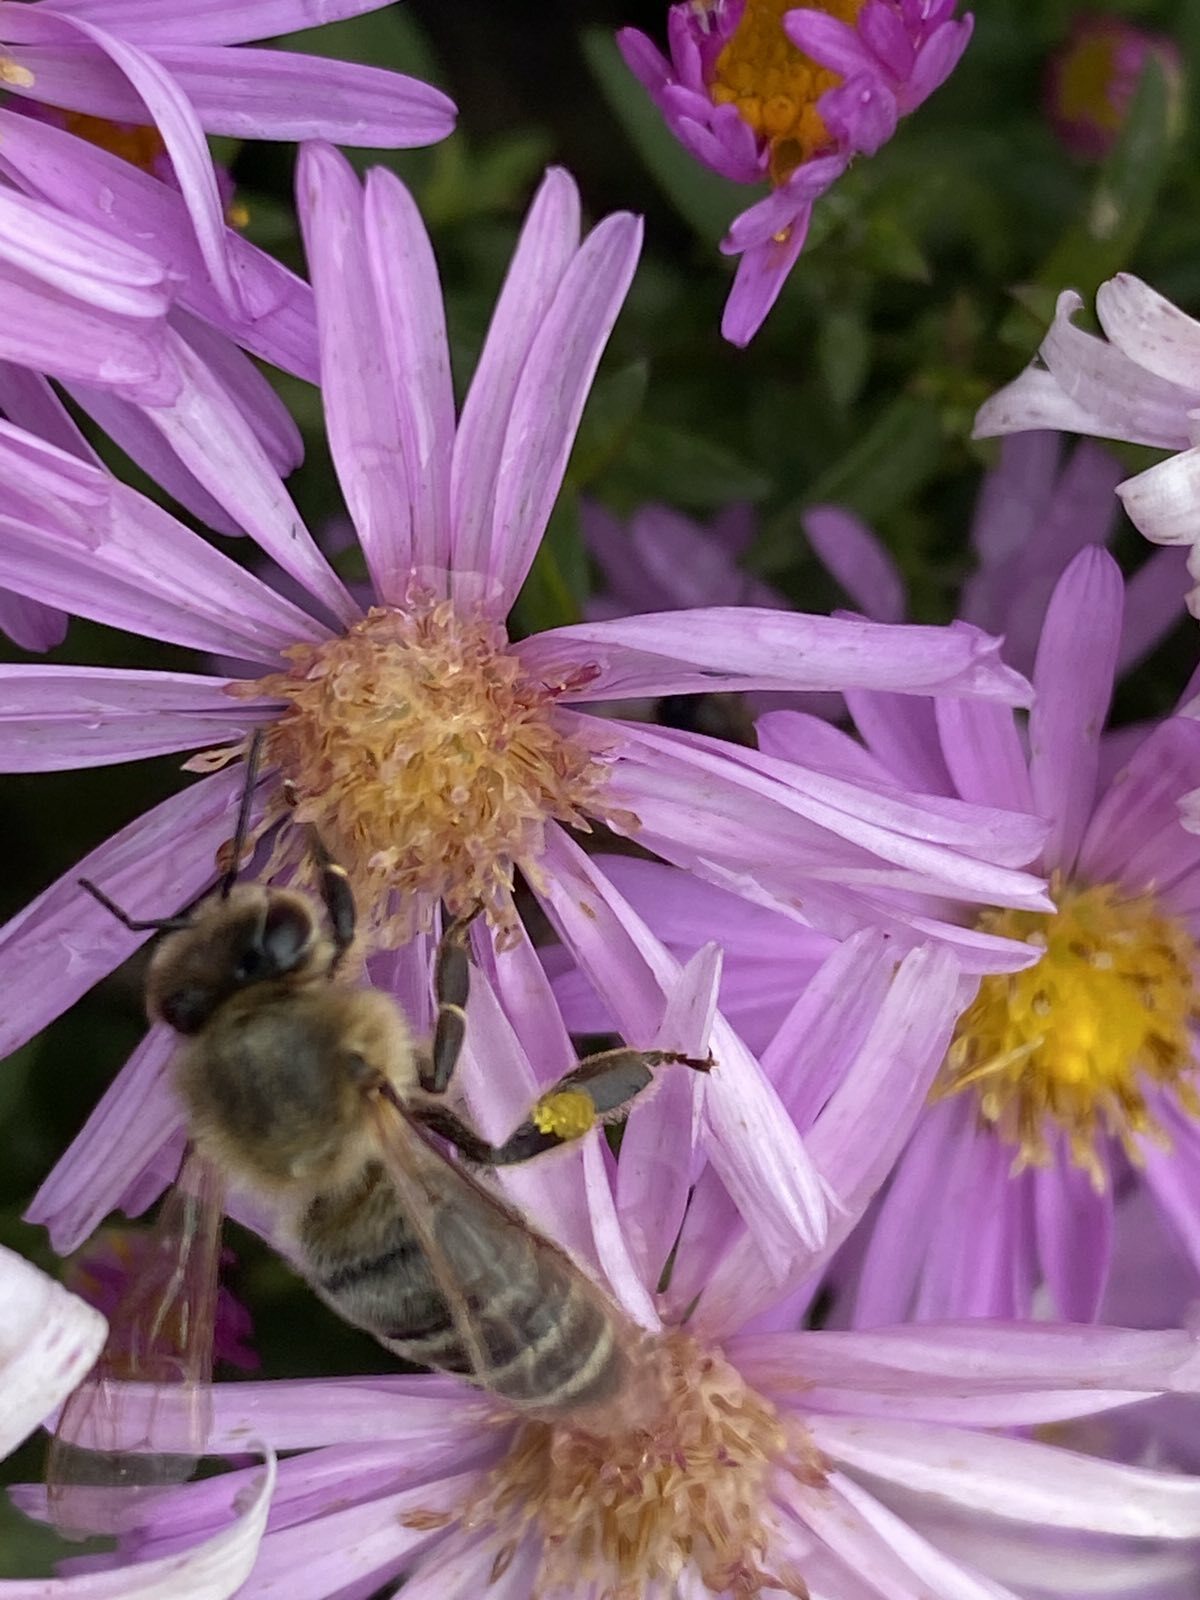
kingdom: Animalia
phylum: Arthropoda
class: Insecta
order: Hymenoptera
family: Apidae
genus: Apis
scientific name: Apis mellifera
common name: Honey bee
